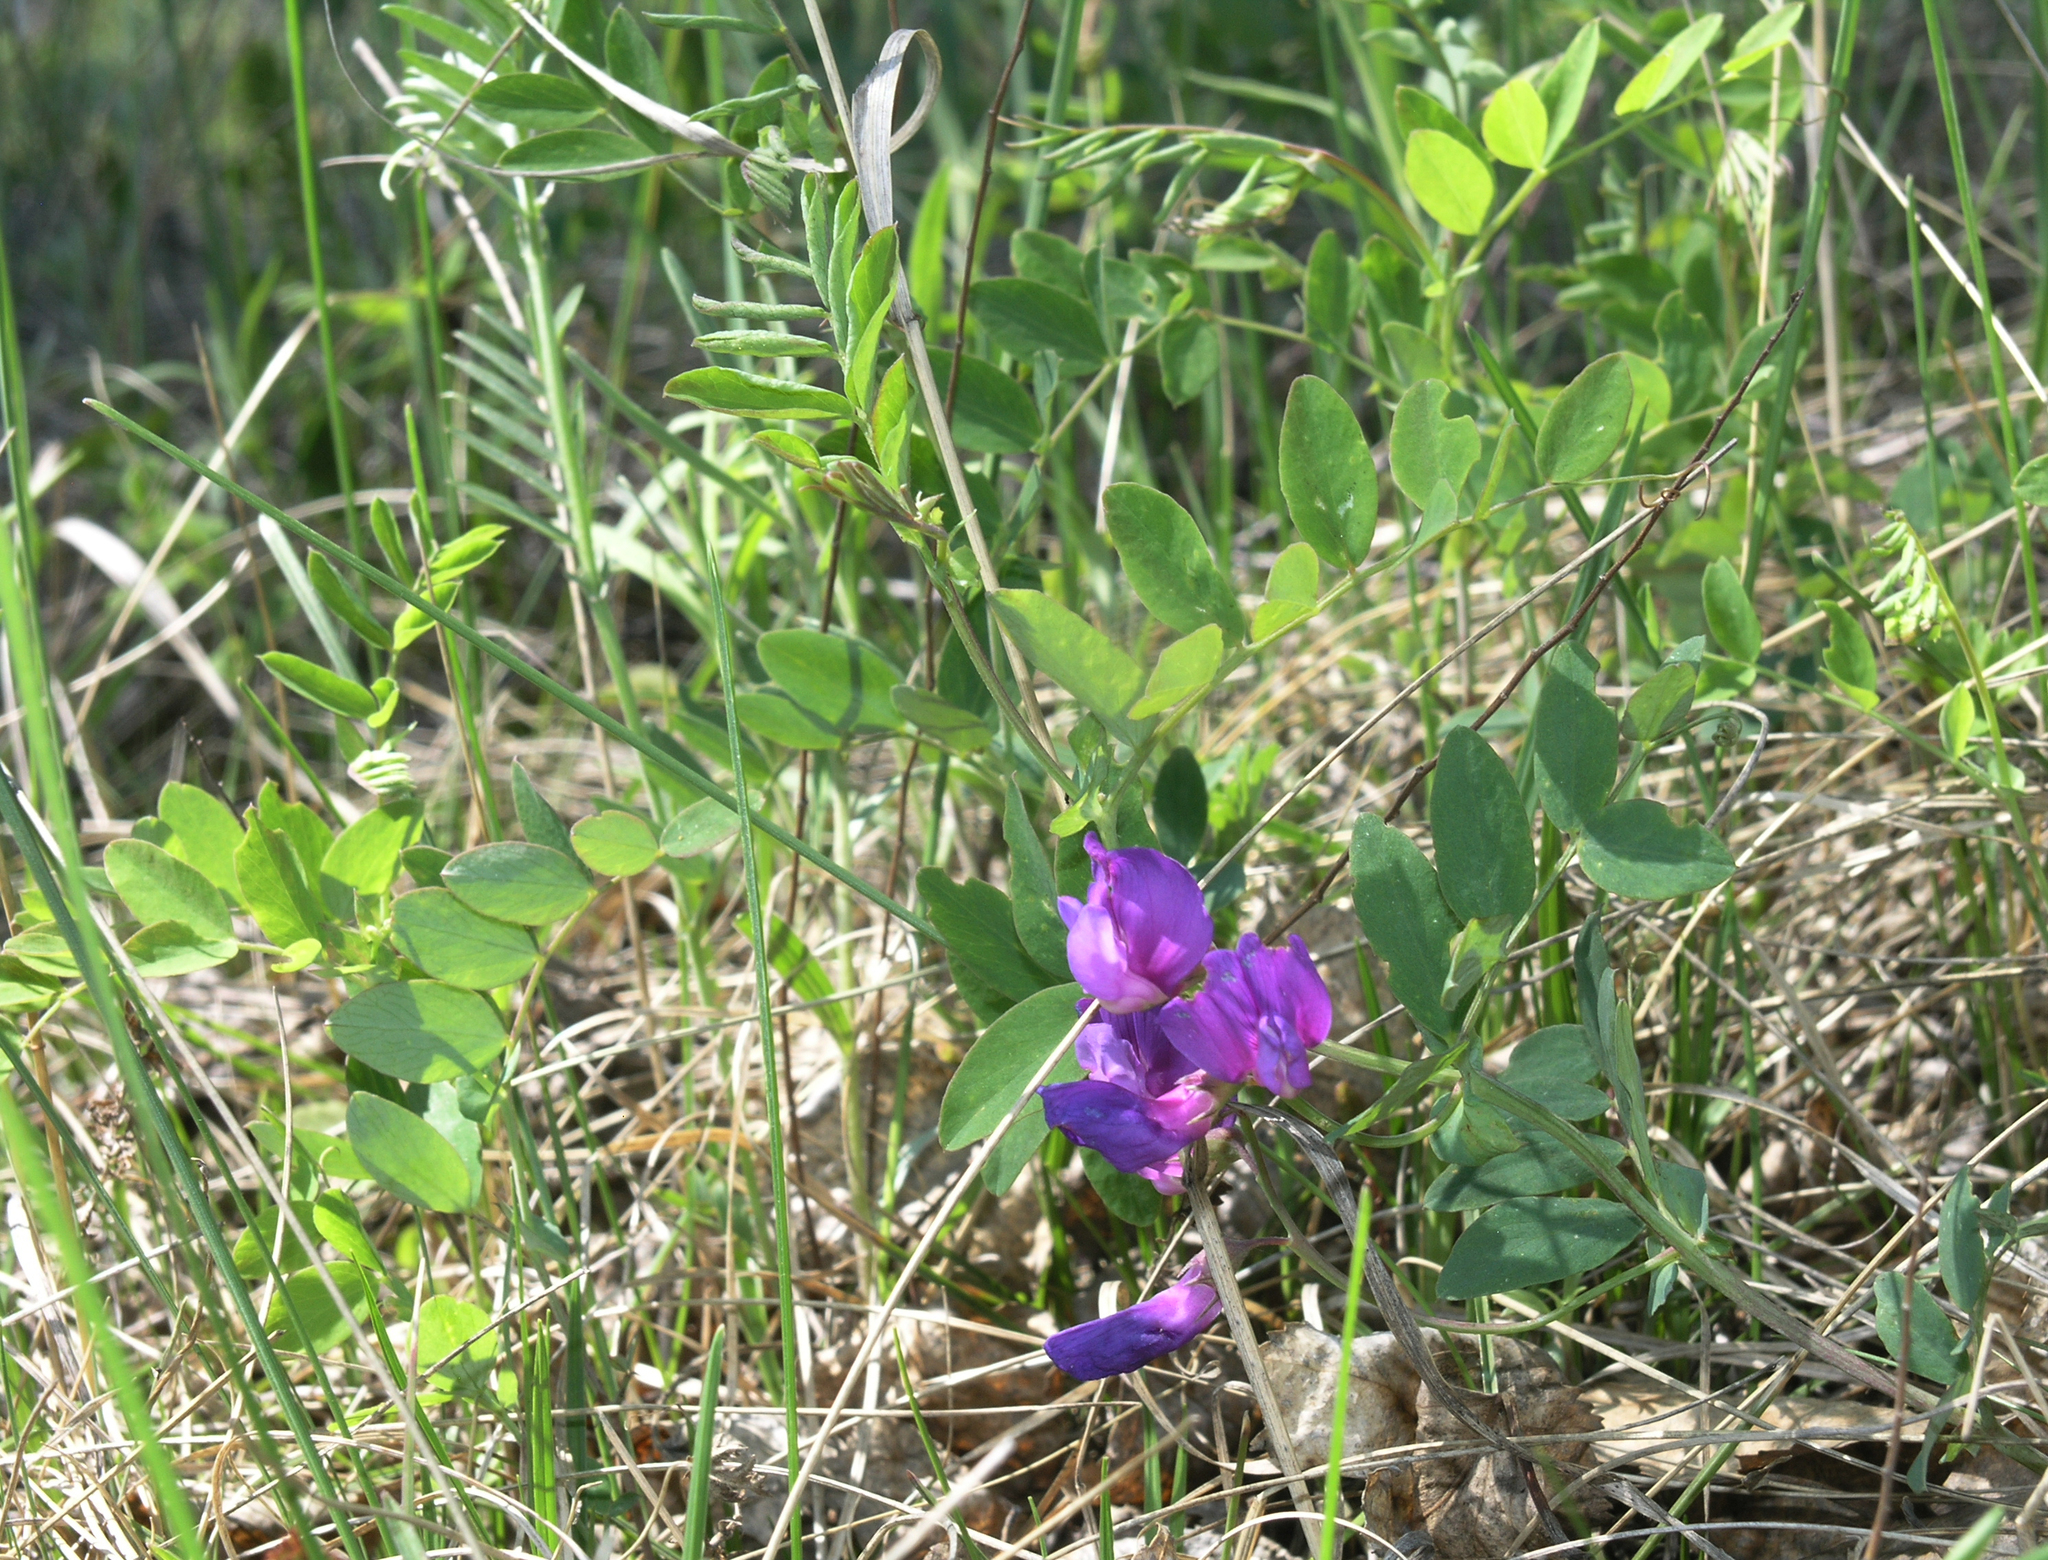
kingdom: Plantae
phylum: Tracheophyta
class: Magnoliopsida
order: Fabales
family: Fabaceae
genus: Lathyrus
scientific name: Lathyrus humilis
